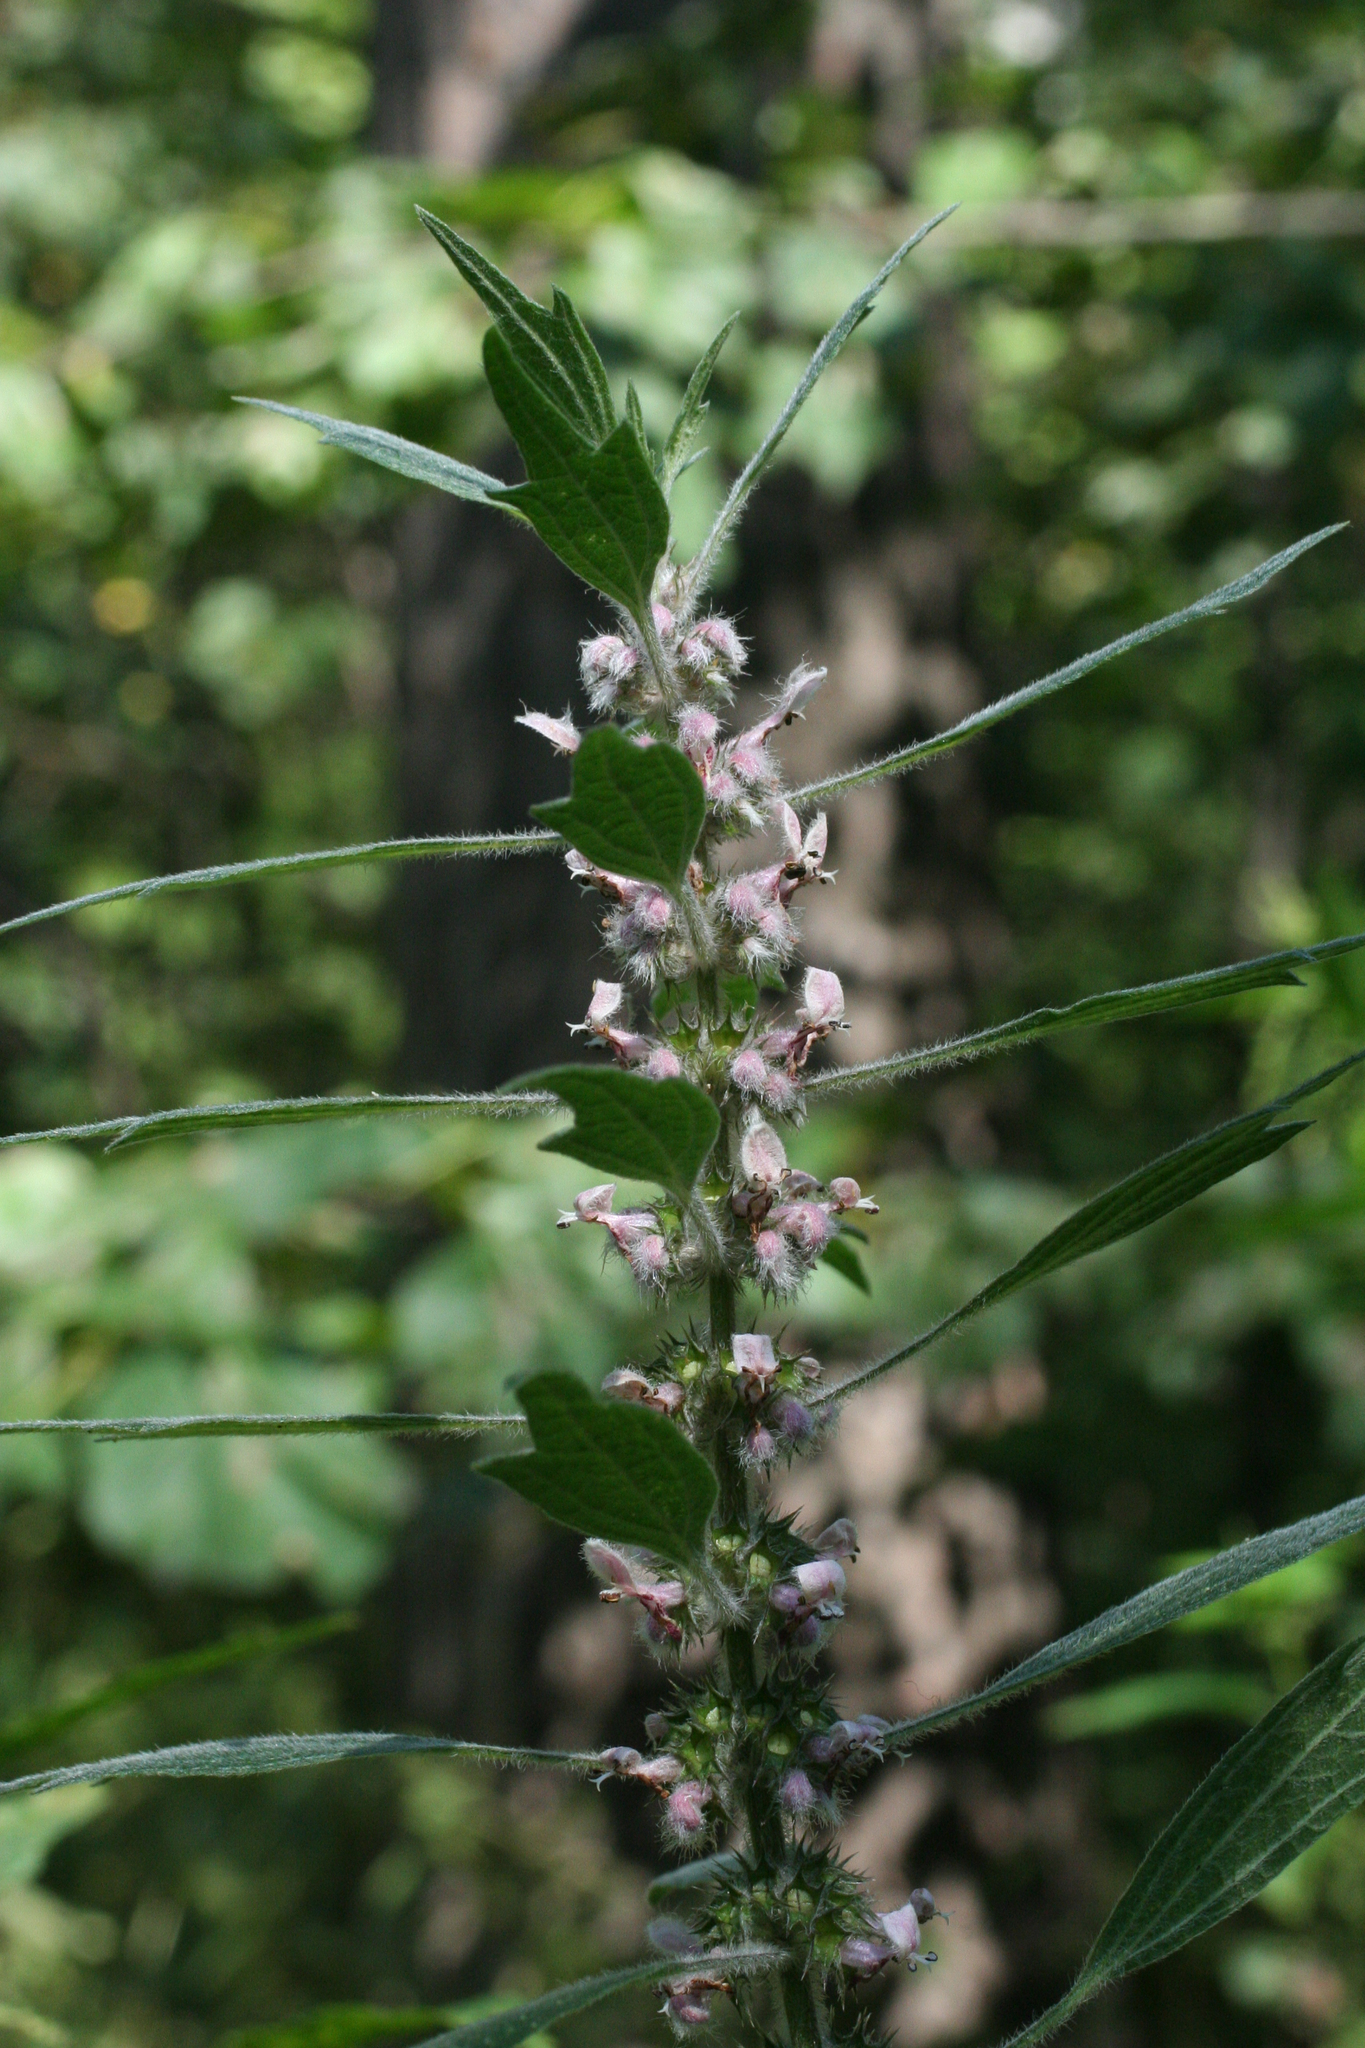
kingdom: Plantae
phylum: Tracheophyta
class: Magnoliopsida
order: Lamiales
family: Lamiaceae
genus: Leonurus
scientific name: Leonurus quinquelobatus
